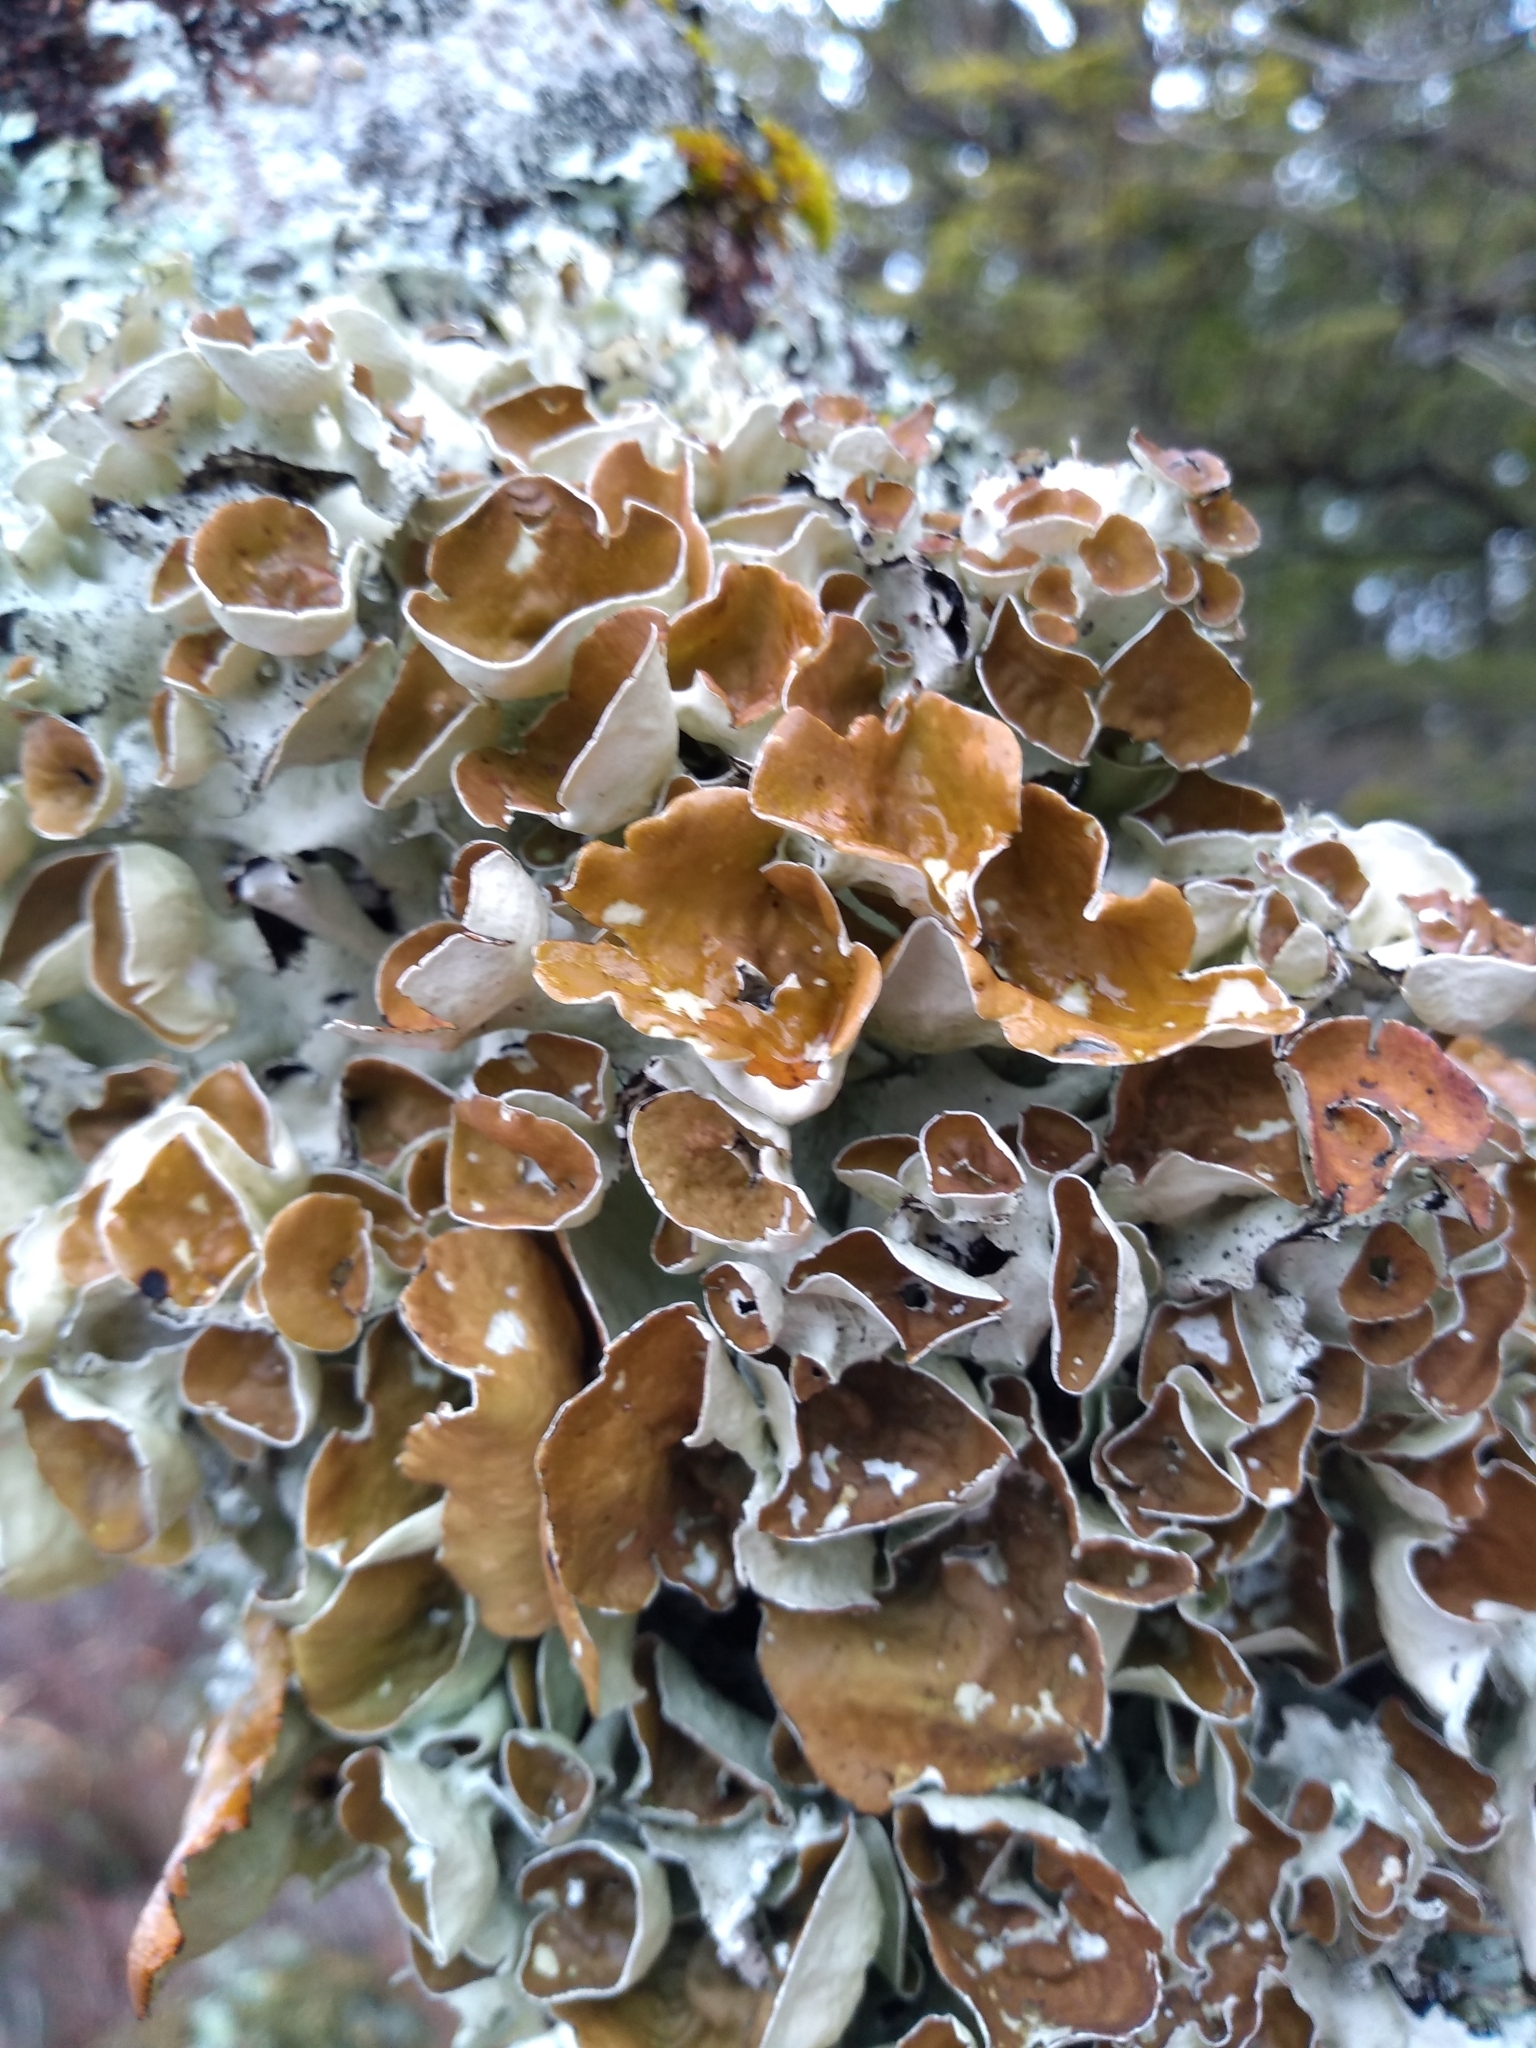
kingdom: Fungi
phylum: Ascomycota
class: Lecanoromycetes
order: Lecanorales
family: Parmeliaceae
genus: Parmotrema
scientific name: Parmotrema perforatum
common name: Perforated ruffle lichen
